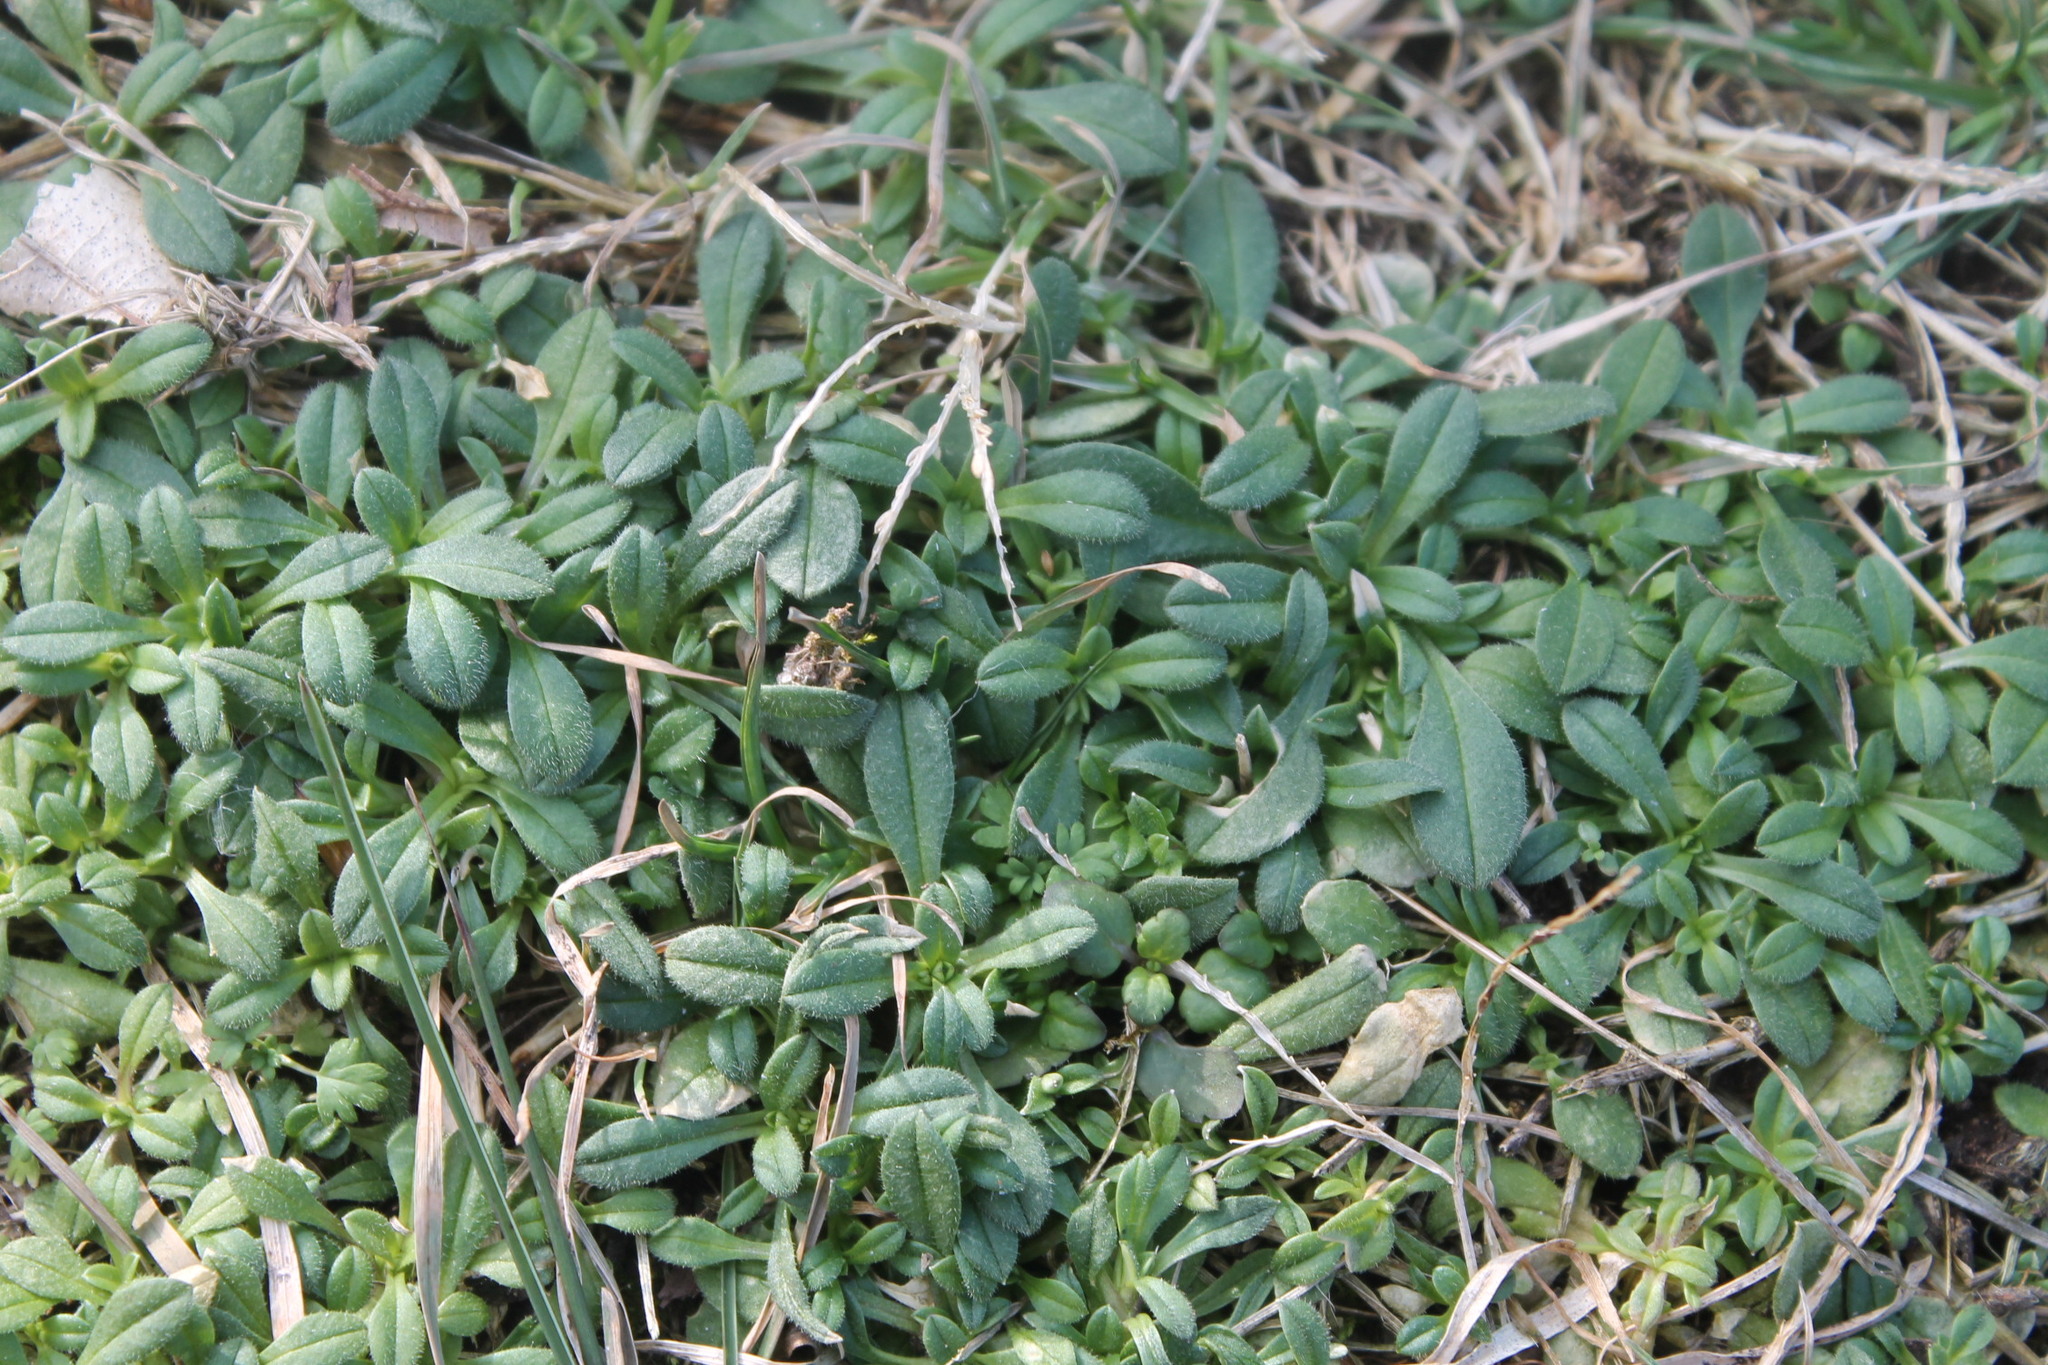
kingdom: Plantae
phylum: Tracheophyta
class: Magnoliopsida
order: Caryophyllales
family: Caryophyllaceae
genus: Cerastium
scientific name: Cerastium fontanum
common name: Common mouse-ear
